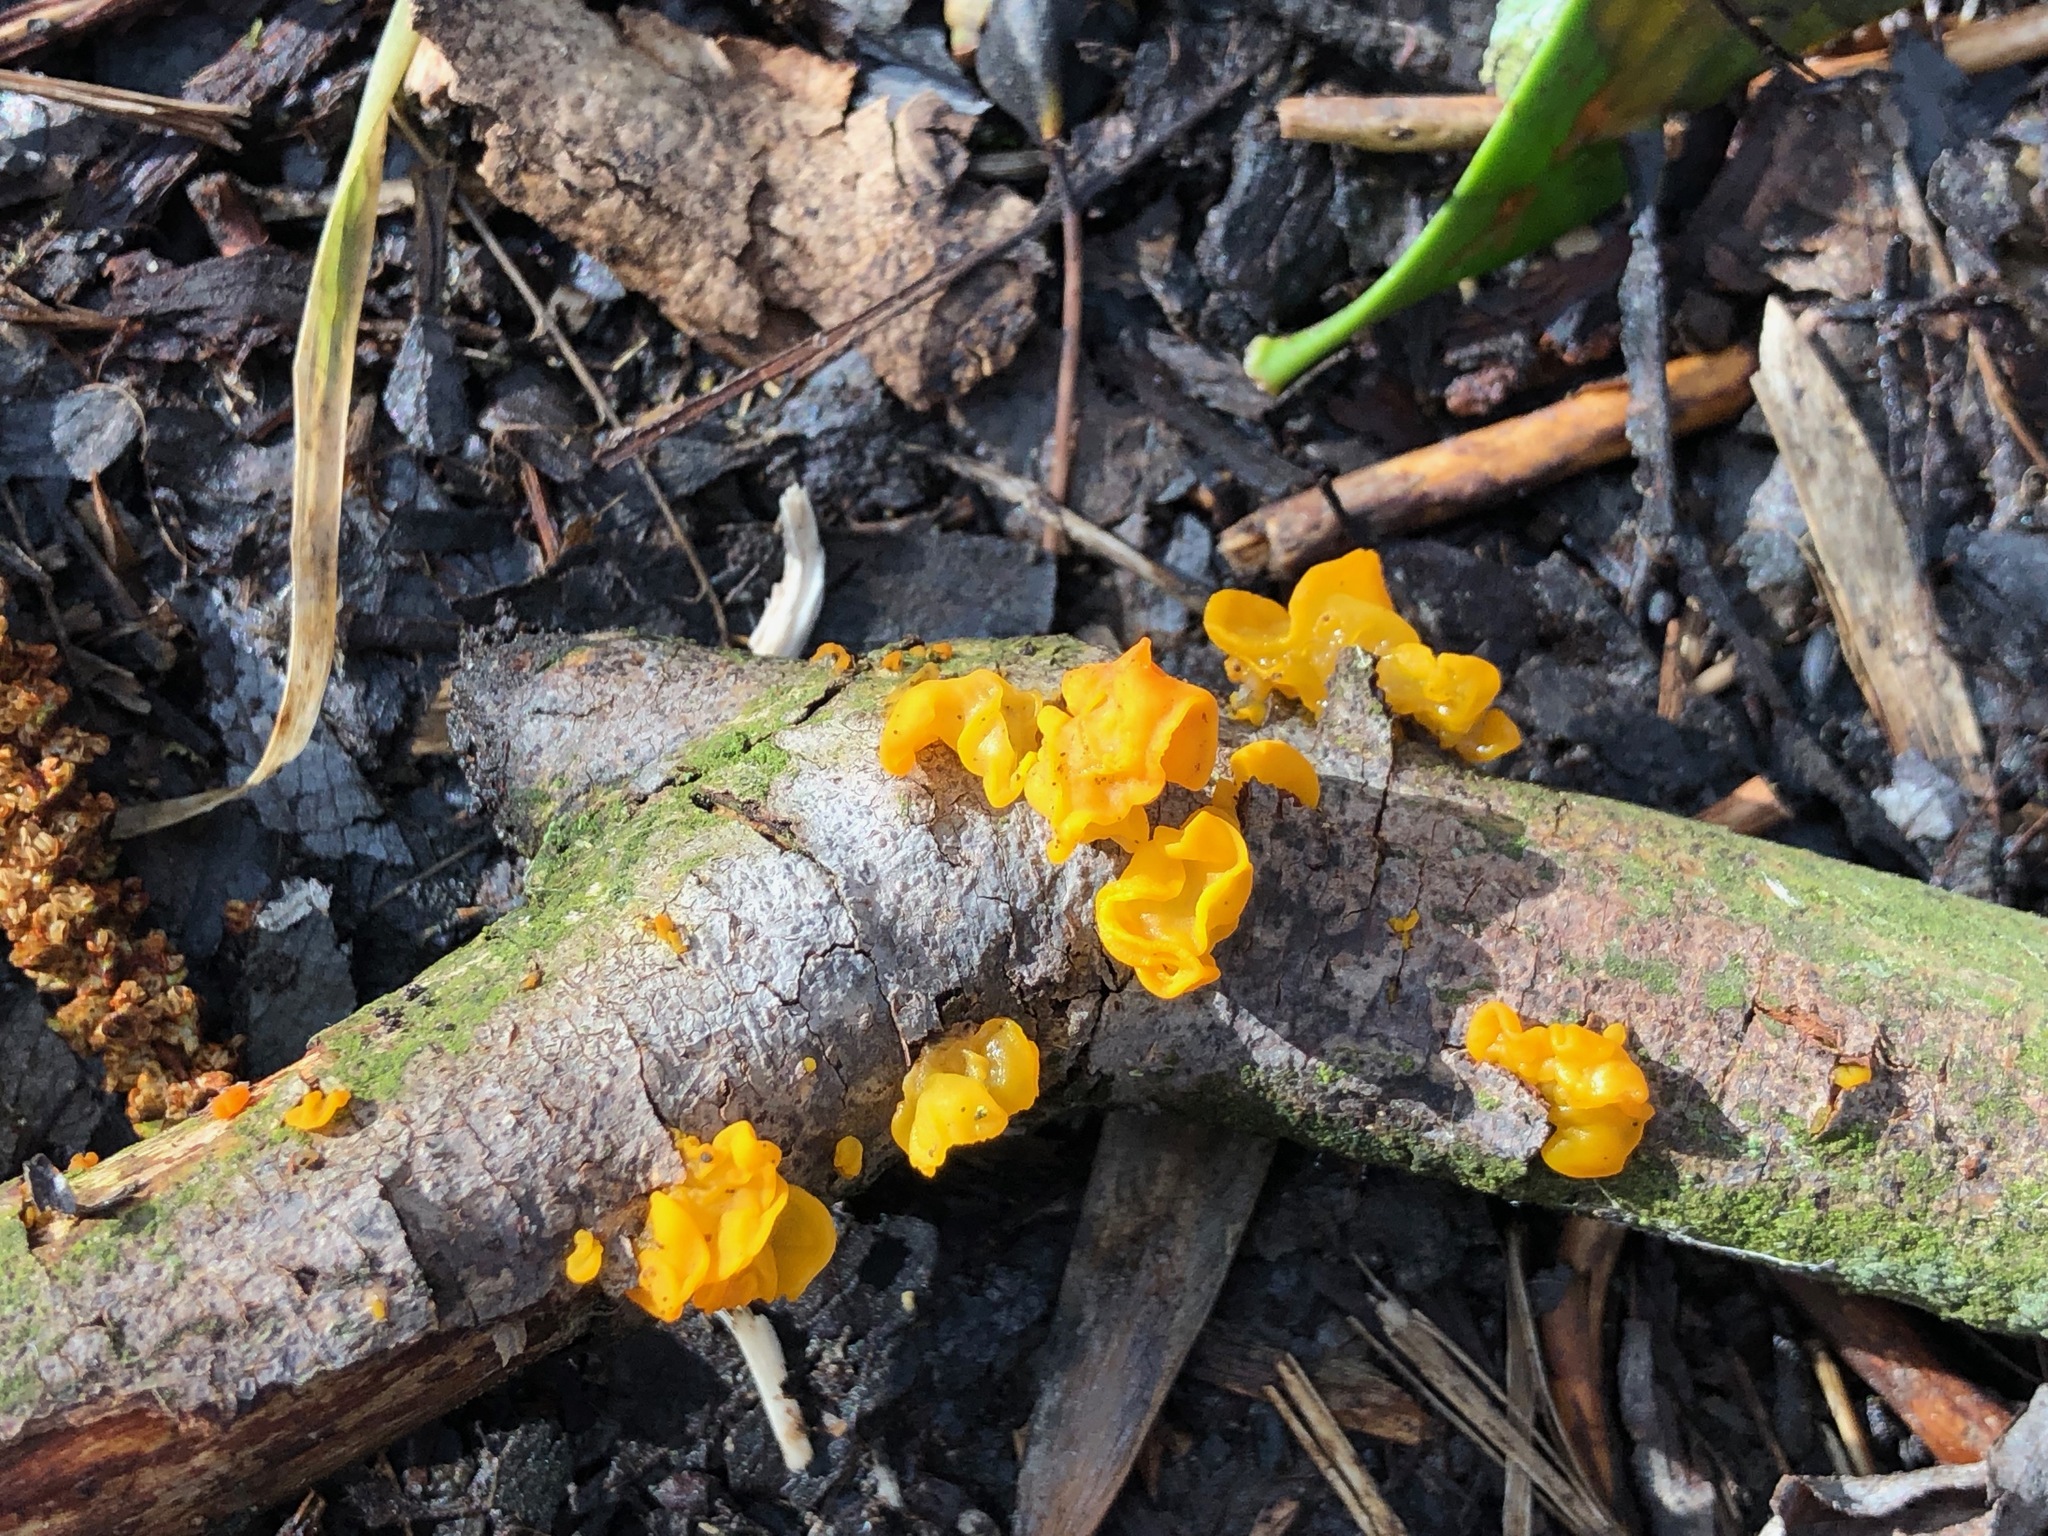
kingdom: Fungi
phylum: Basidiomycota
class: Tremellomycetes
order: Tremellales
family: Tremellaceae
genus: Tremella
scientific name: Tremella mesenterica
